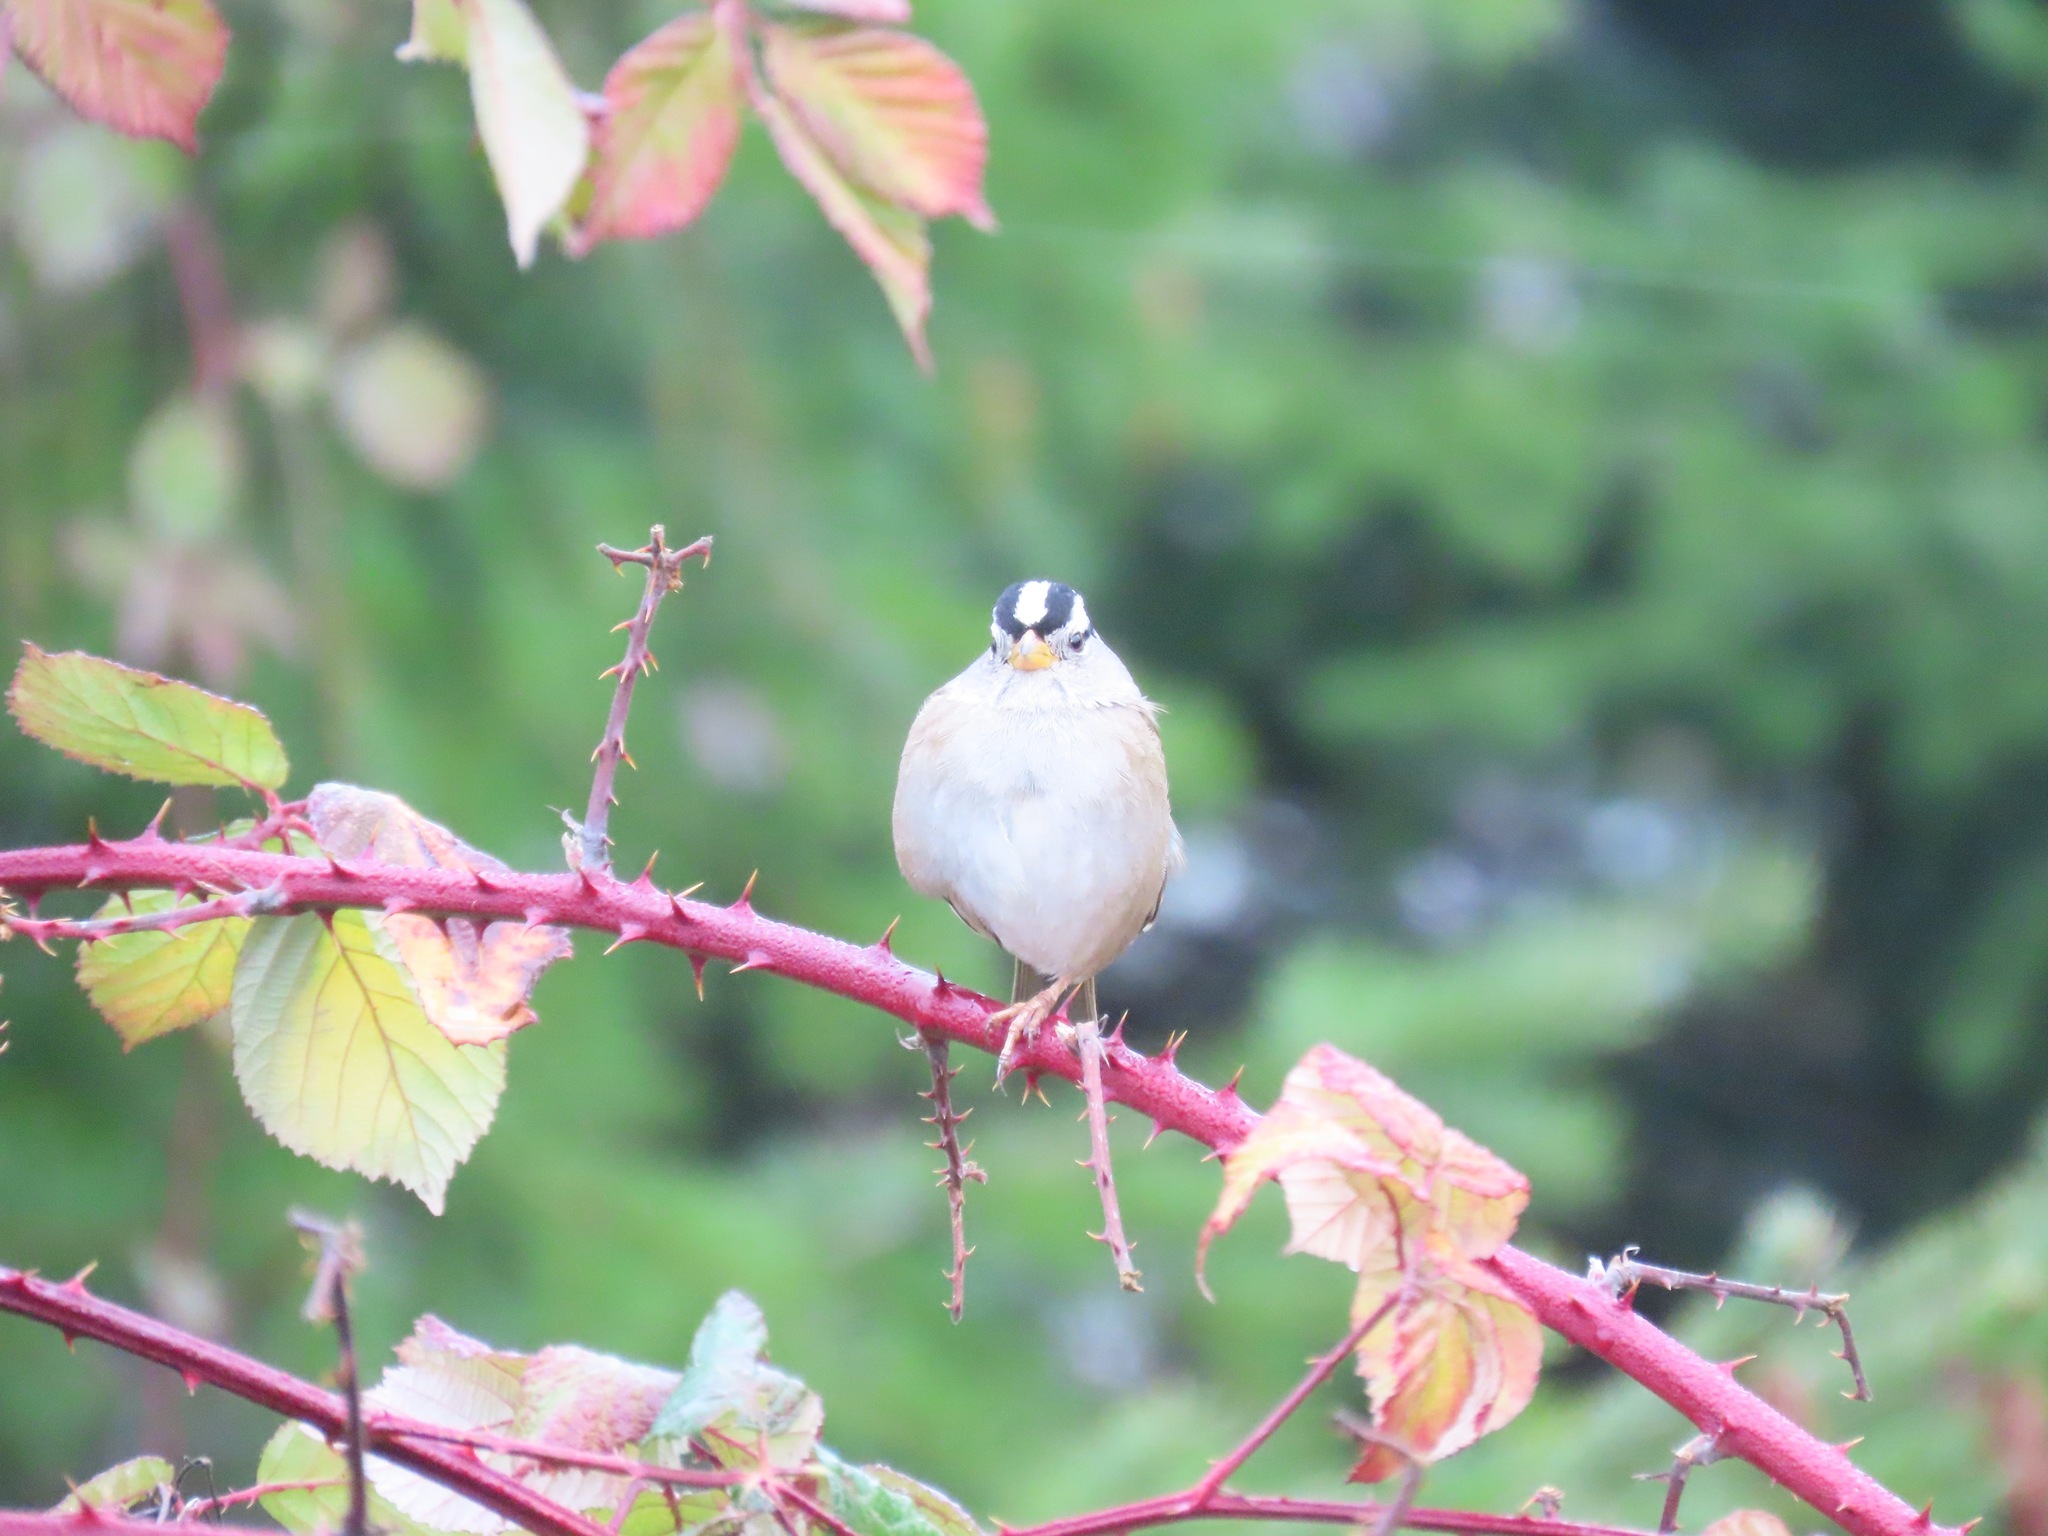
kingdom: Animalia
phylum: Chordata
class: Aves
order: Passeriformes
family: Passerellidae
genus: Zonotrichia
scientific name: Zonotrichia leucophrys
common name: White-crowned sparrow
